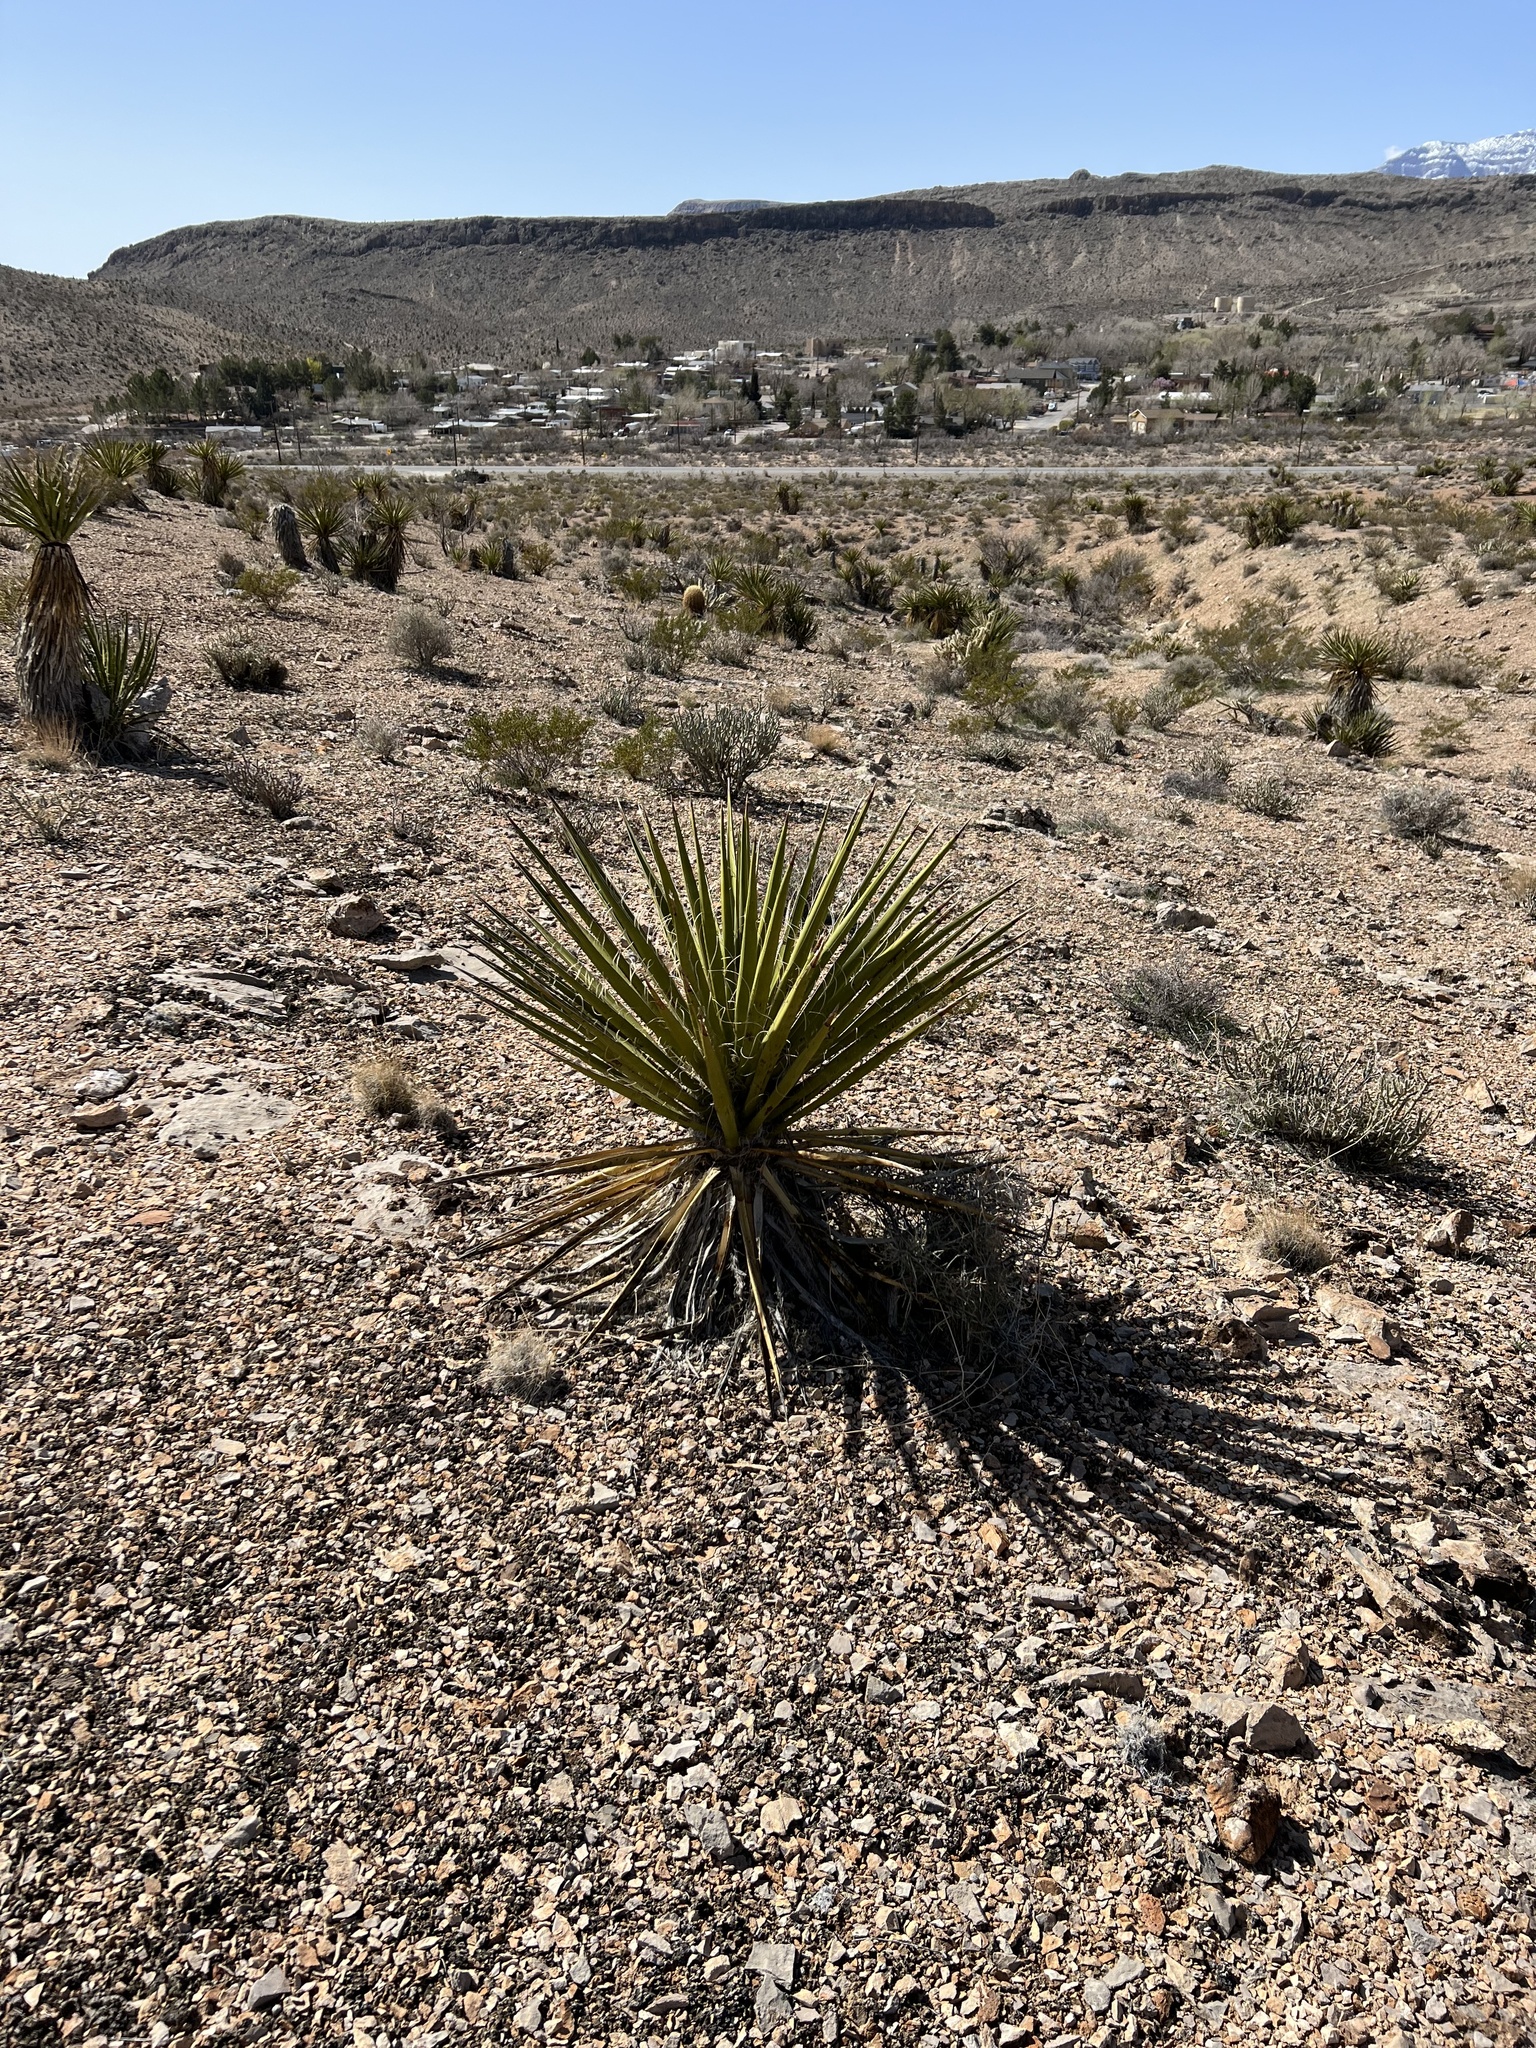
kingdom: Plantae
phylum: Tracheophyta
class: Liliopsida
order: Asparagales
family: Asparagaceae
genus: Yucca
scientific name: Yucca schidigera
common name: Mojave yucca
